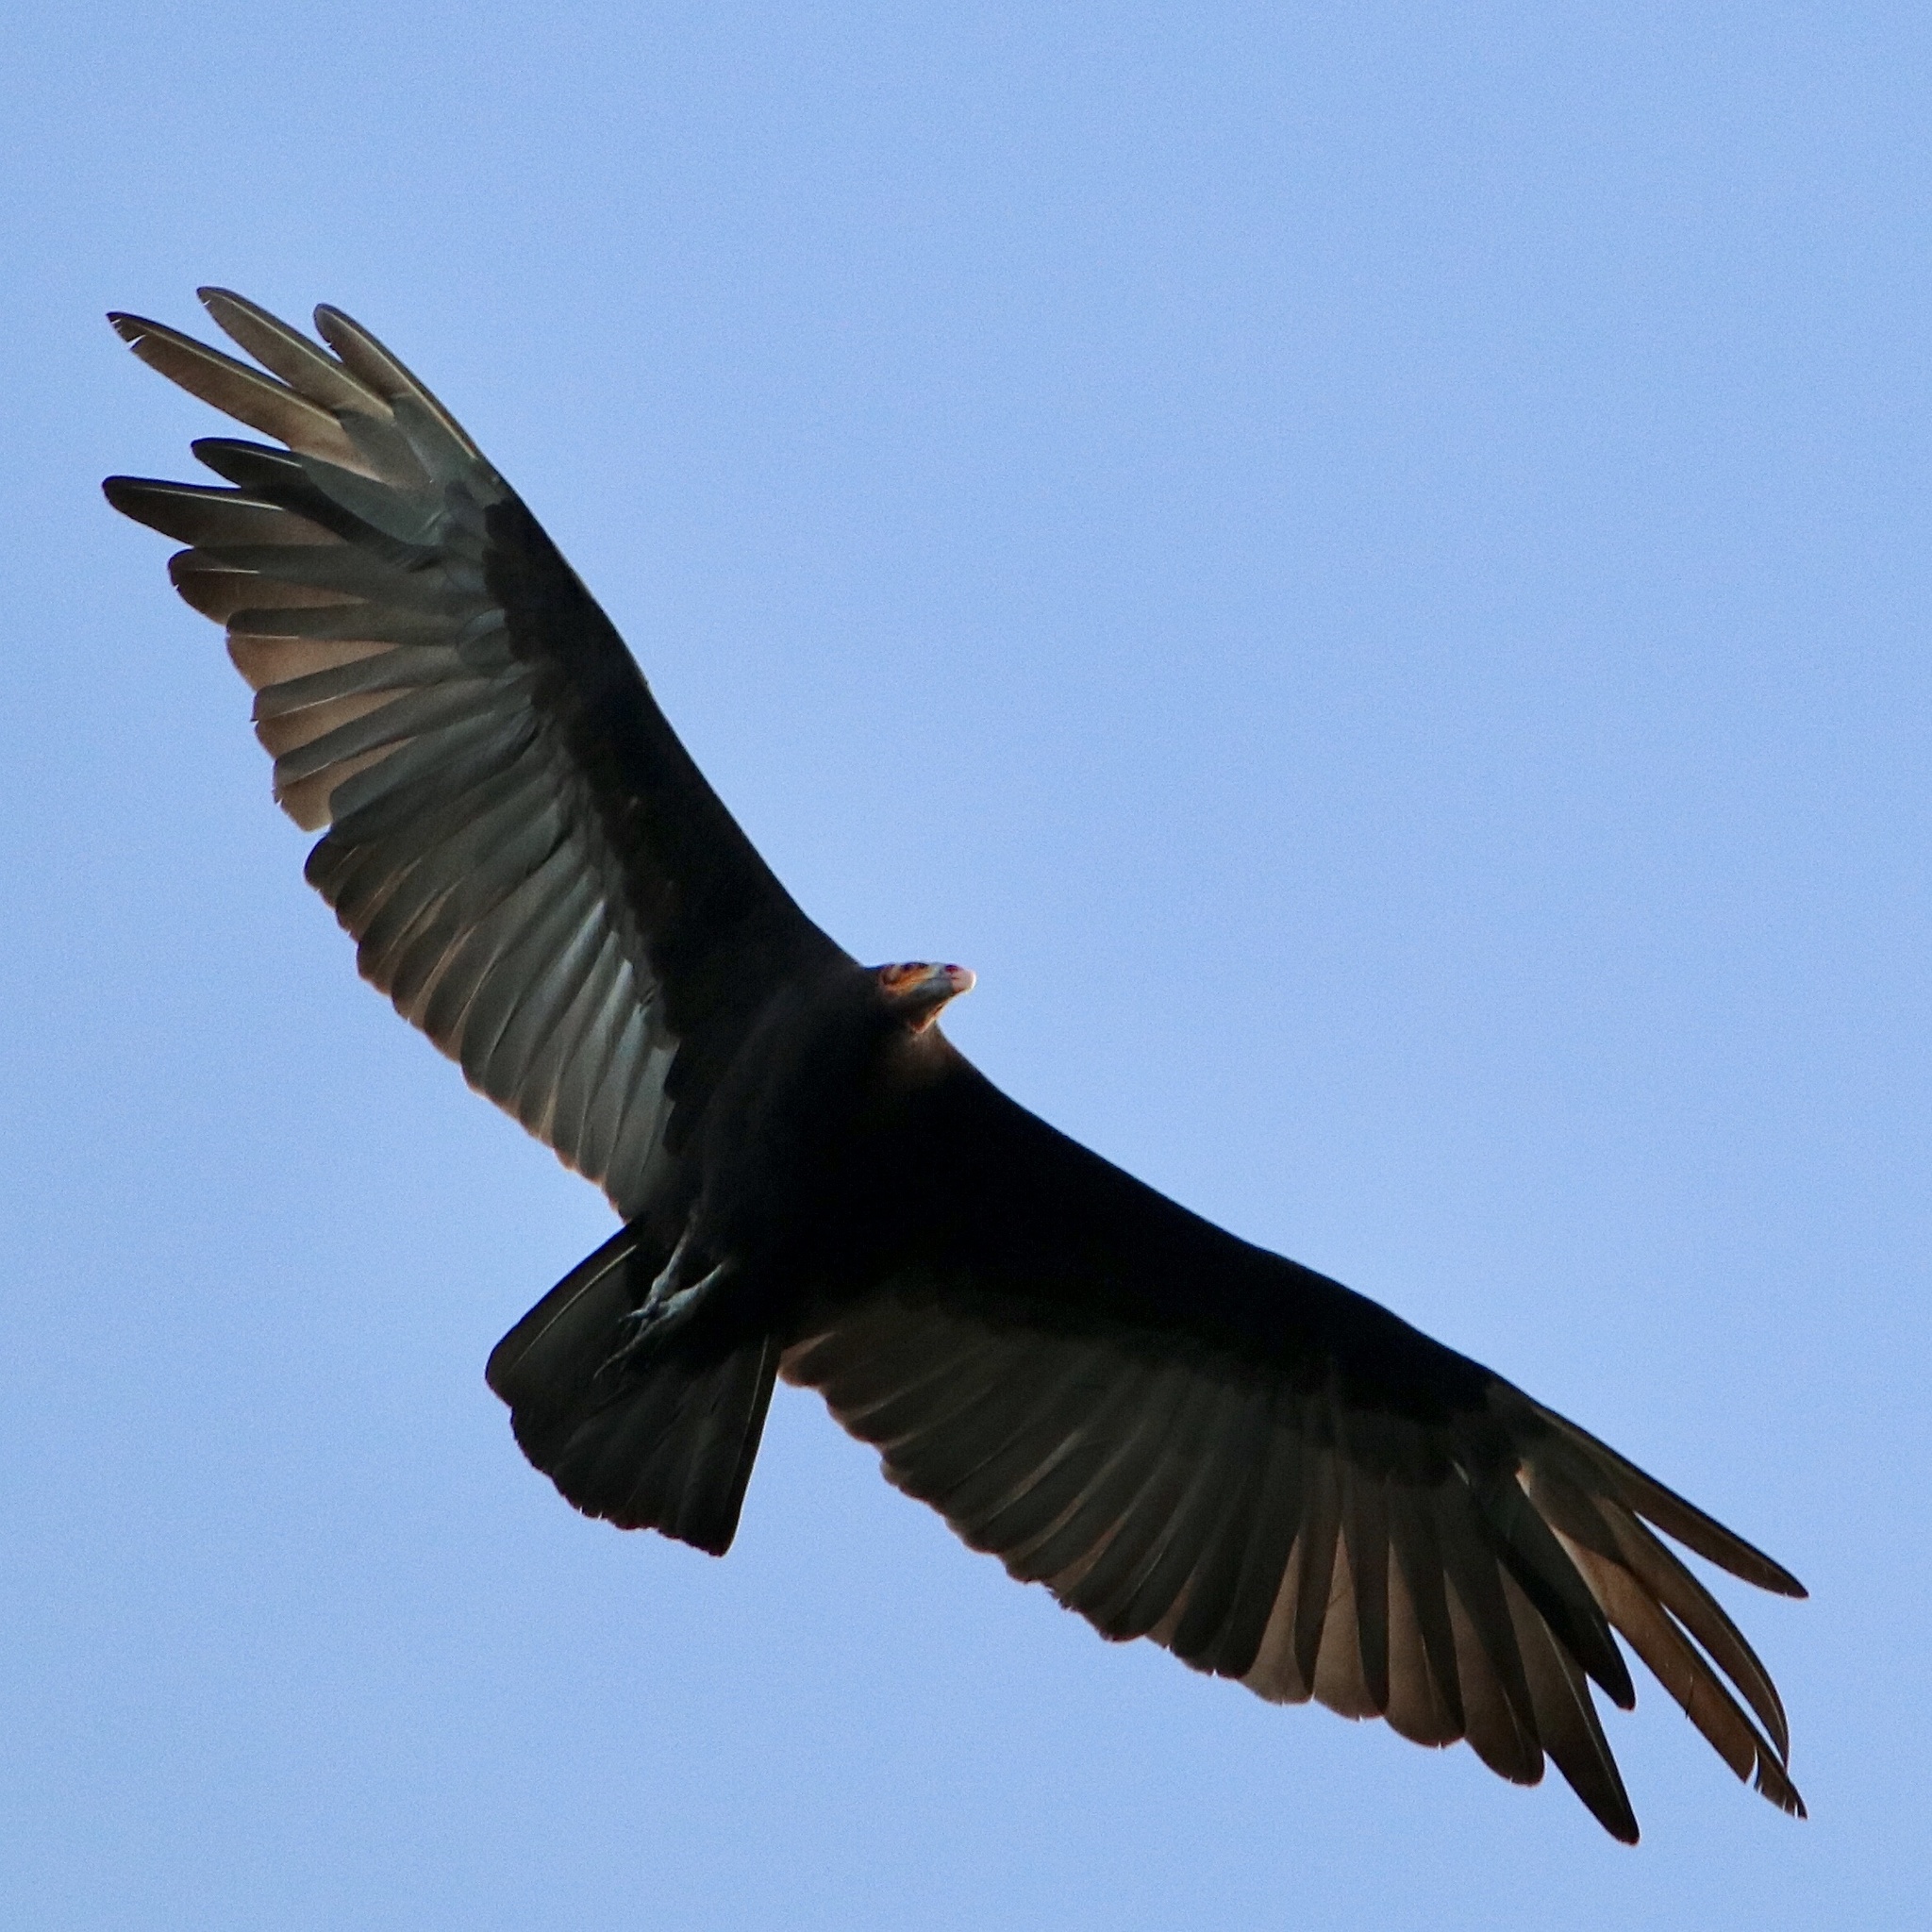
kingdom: Animalia
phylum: Chordata
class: Aves
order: Accipitriformes
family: Cathartidae
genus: Cathartes
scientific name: Cathartes burrovianus
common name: Lesser yellow-headed vulture
